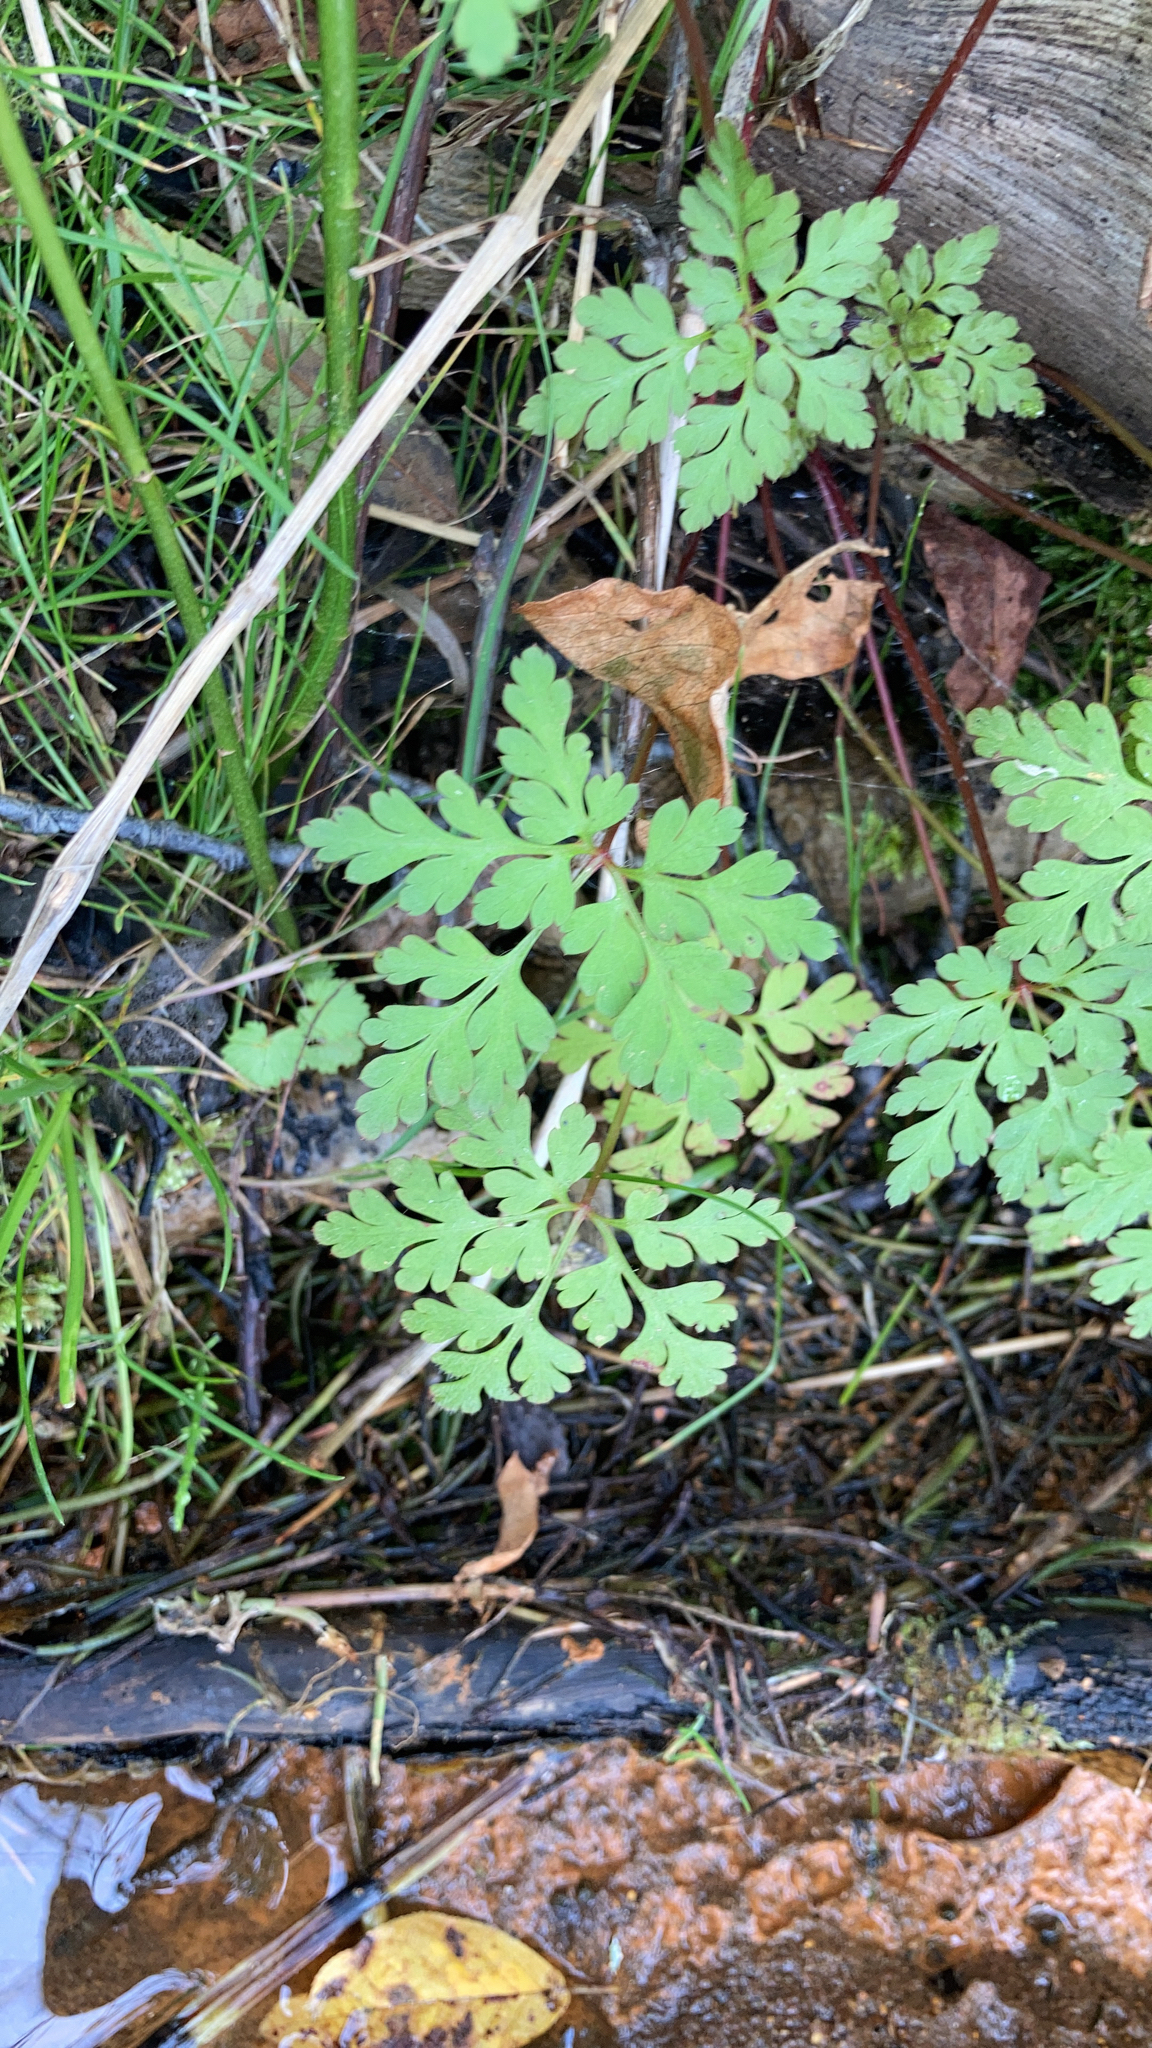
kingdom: Plantae
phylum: Tracheophyta
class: Magnoliopsida
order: Geraniales
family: Geraniaceae
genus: Geranium
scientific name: Geranium robertianum
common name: Herb-robert
